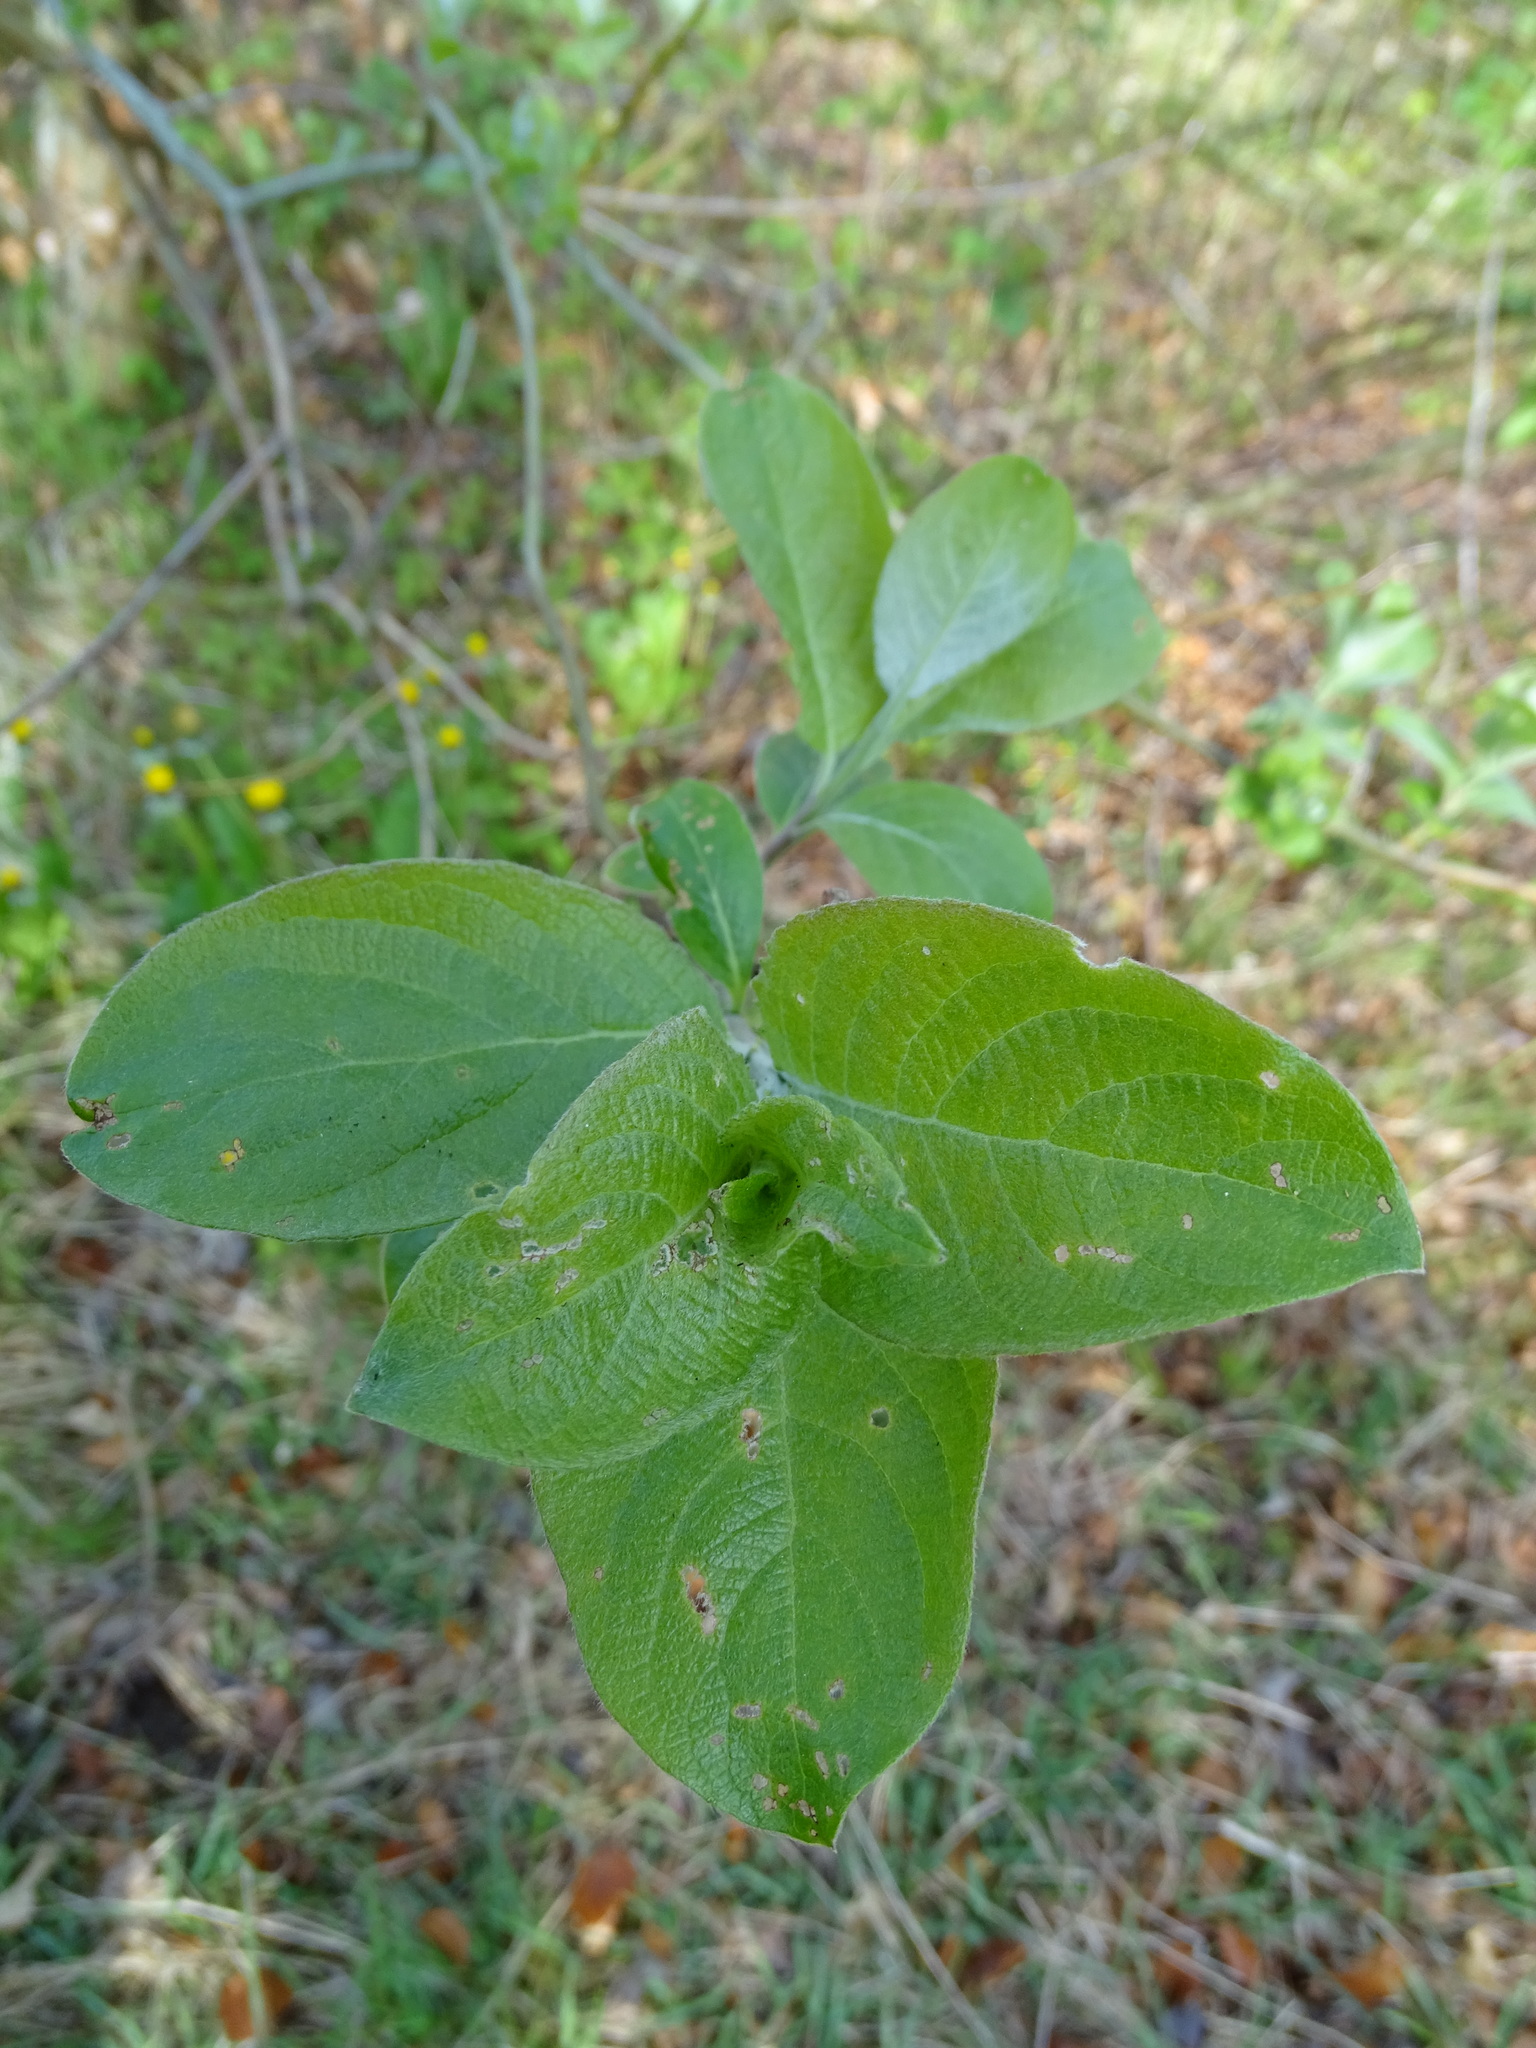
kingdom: Plantae
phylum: Tracheophyta
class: Magnoliopsida
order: Malpighiales
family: Salicaceae
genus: Salix
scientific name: Salix caprea
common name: Goat willow
